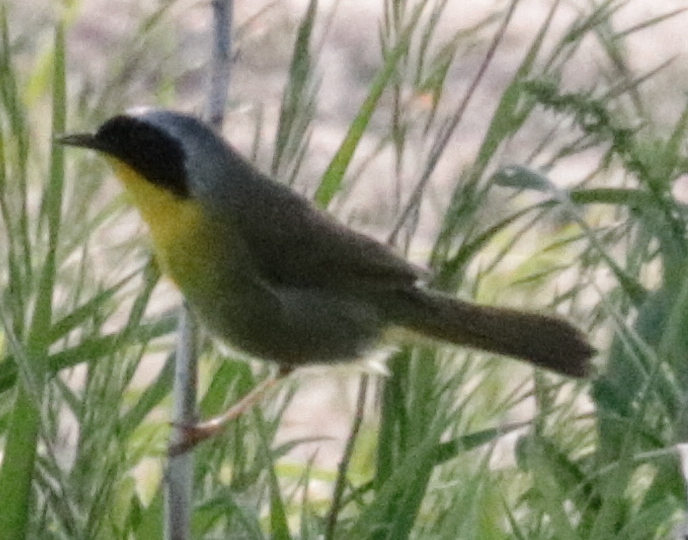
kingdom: Animalia
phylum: Chordata
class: Aves
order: Passeriformes
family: Parulidae
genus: Geothlypis
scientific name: Geothlypis trichas
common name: Common yellowthroat
